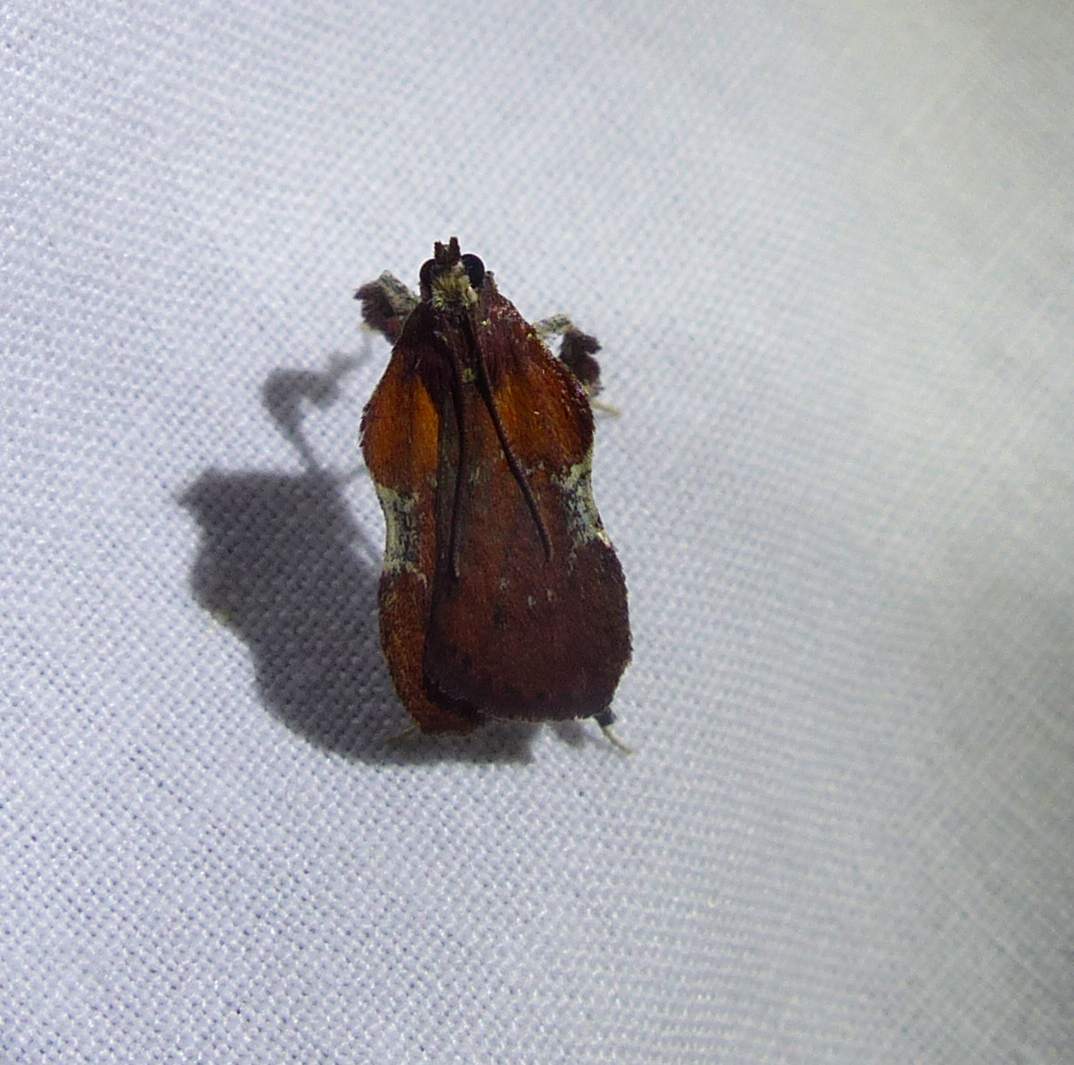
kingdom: Animalia
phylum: Arthropoda
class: Insecta
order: Lepidoptera
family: Pyralidae
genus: Galasa
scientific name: Galasa nigrinodis
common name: Boxwood leaftier moth
